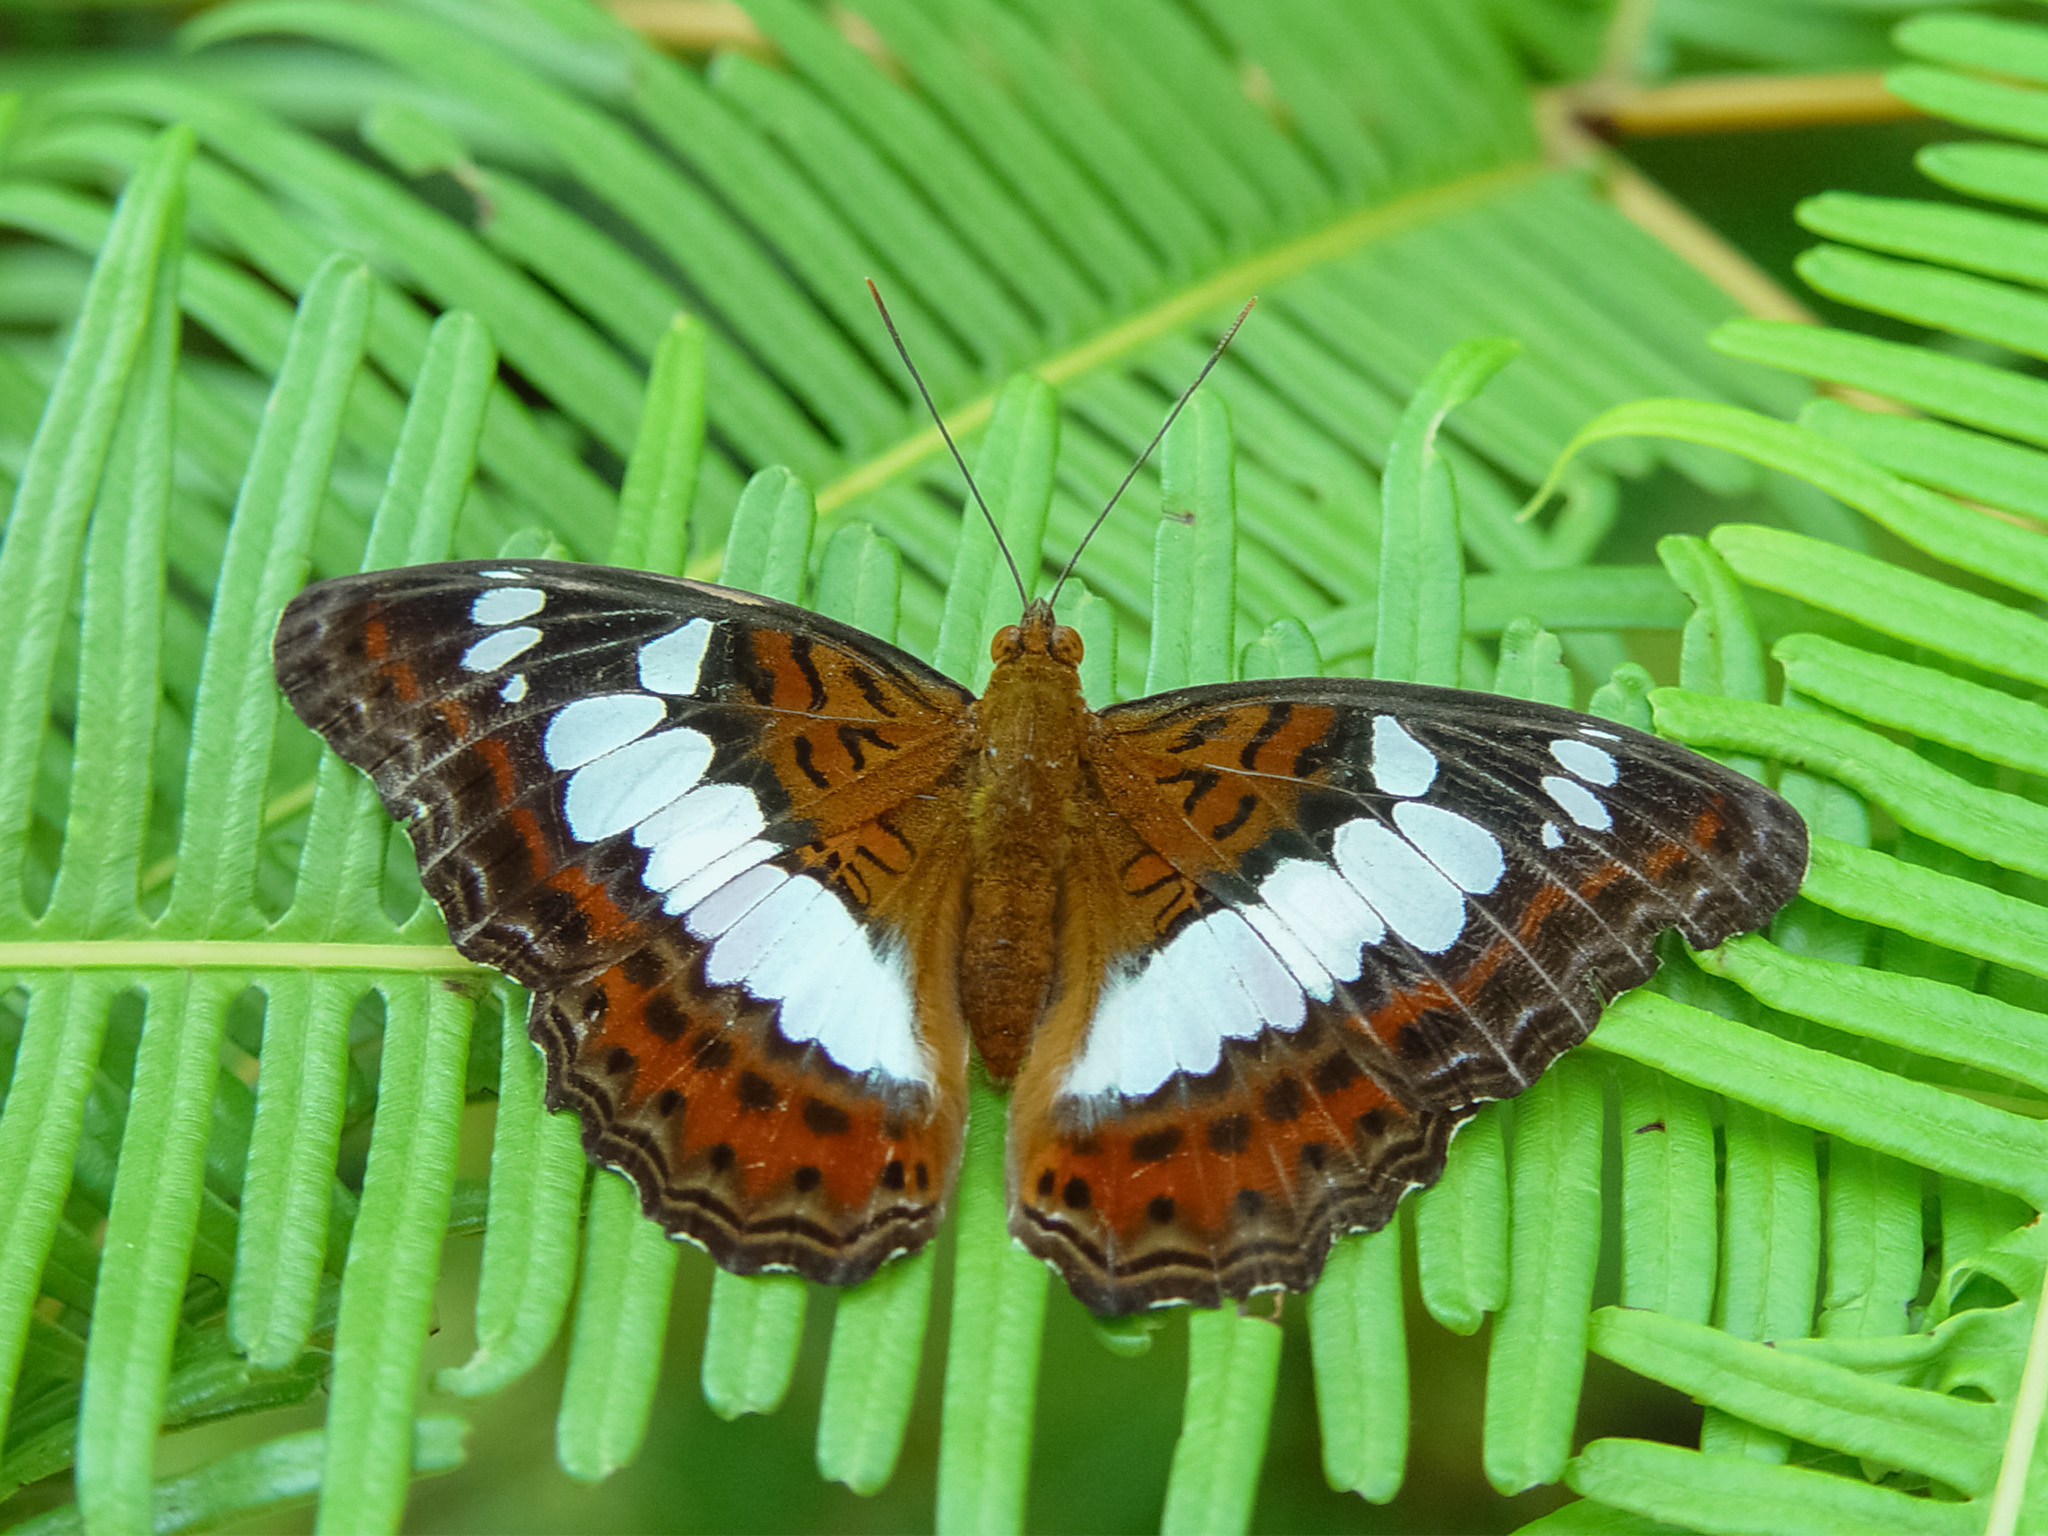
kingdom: Animalia
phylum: Arthropoda
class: Insecta
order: Lepidoptera
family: Nymphalidae
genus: Limenitis
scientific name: Limenitis Moduza procris
